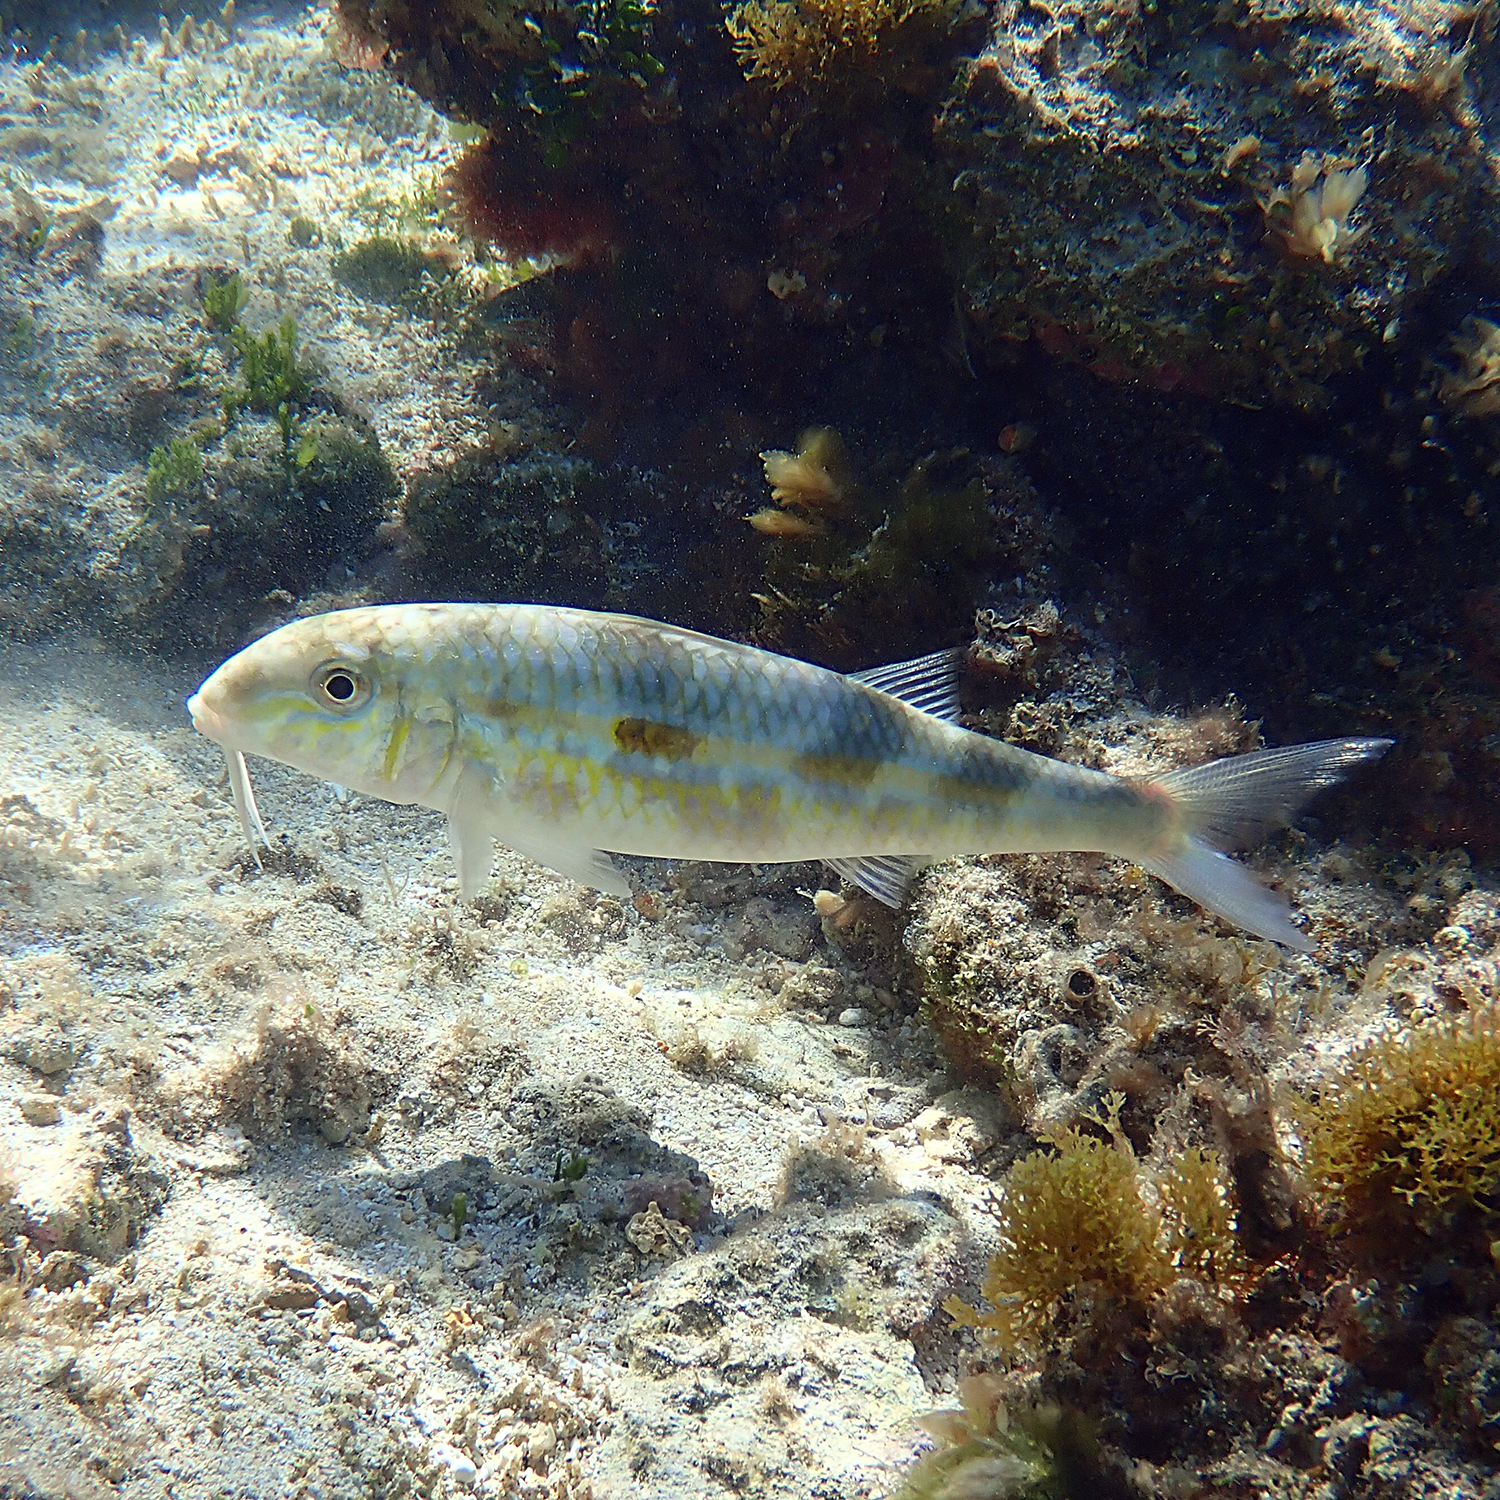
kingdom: Animalia
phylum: Chordata
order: Perciformes
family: Mullidae
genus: Mulloidichthys
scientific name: Mulloidichthys flavolineatus
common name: Yellowstripe goatfish
